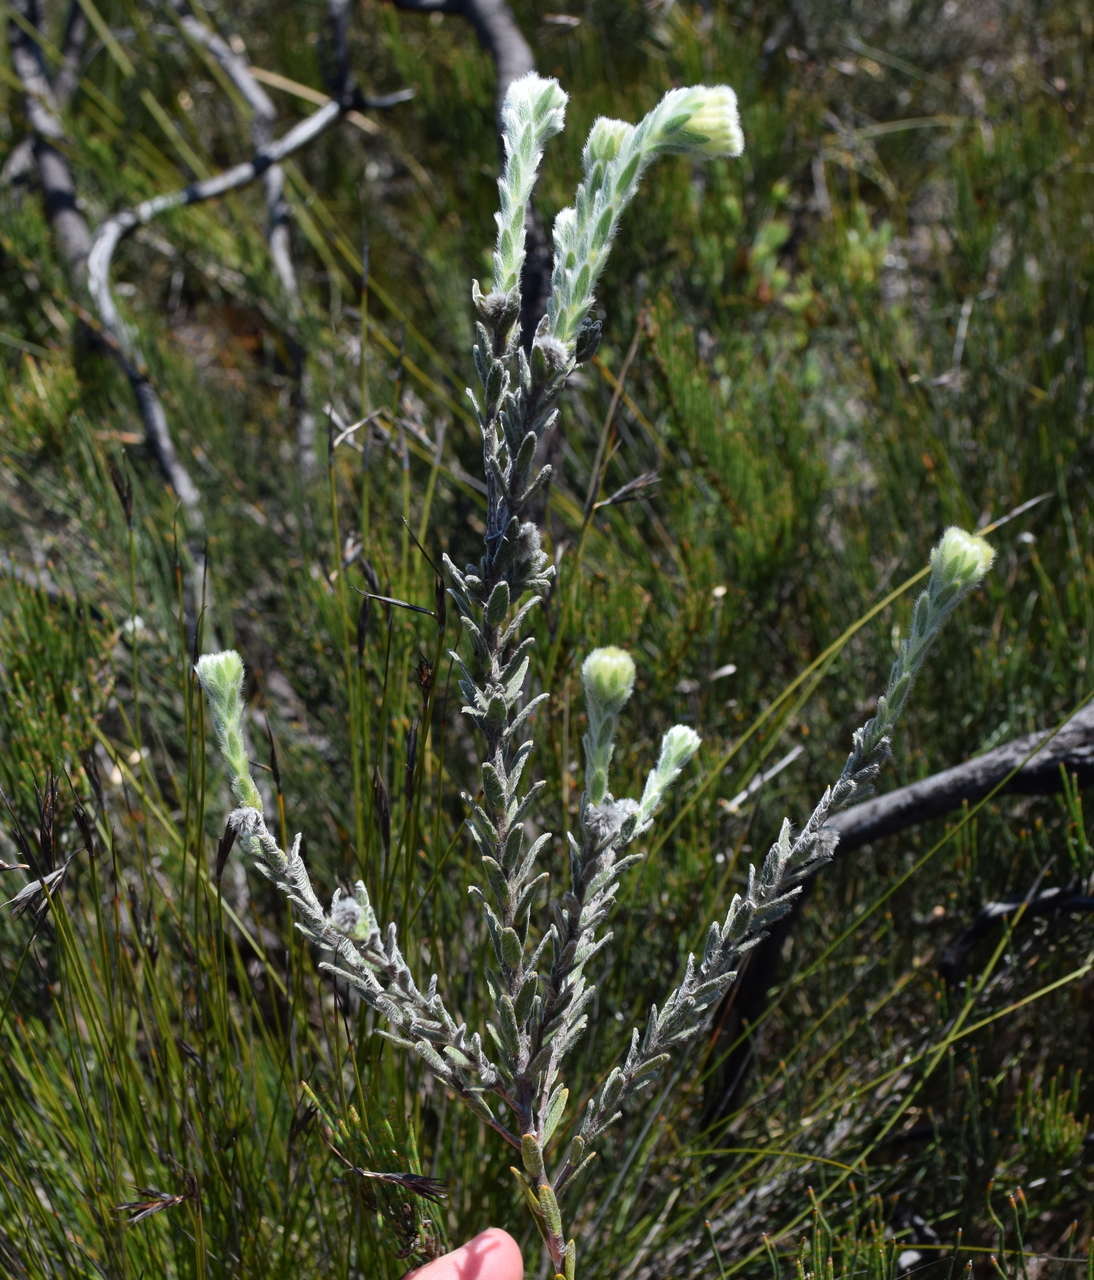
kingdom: Plantae
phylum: Tracheophyta
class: Magnoliopsida
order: Malvales
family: Thymelaeaceae
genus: Pimelea
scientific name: Pimelea octophylla
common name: Woolly riceflower
